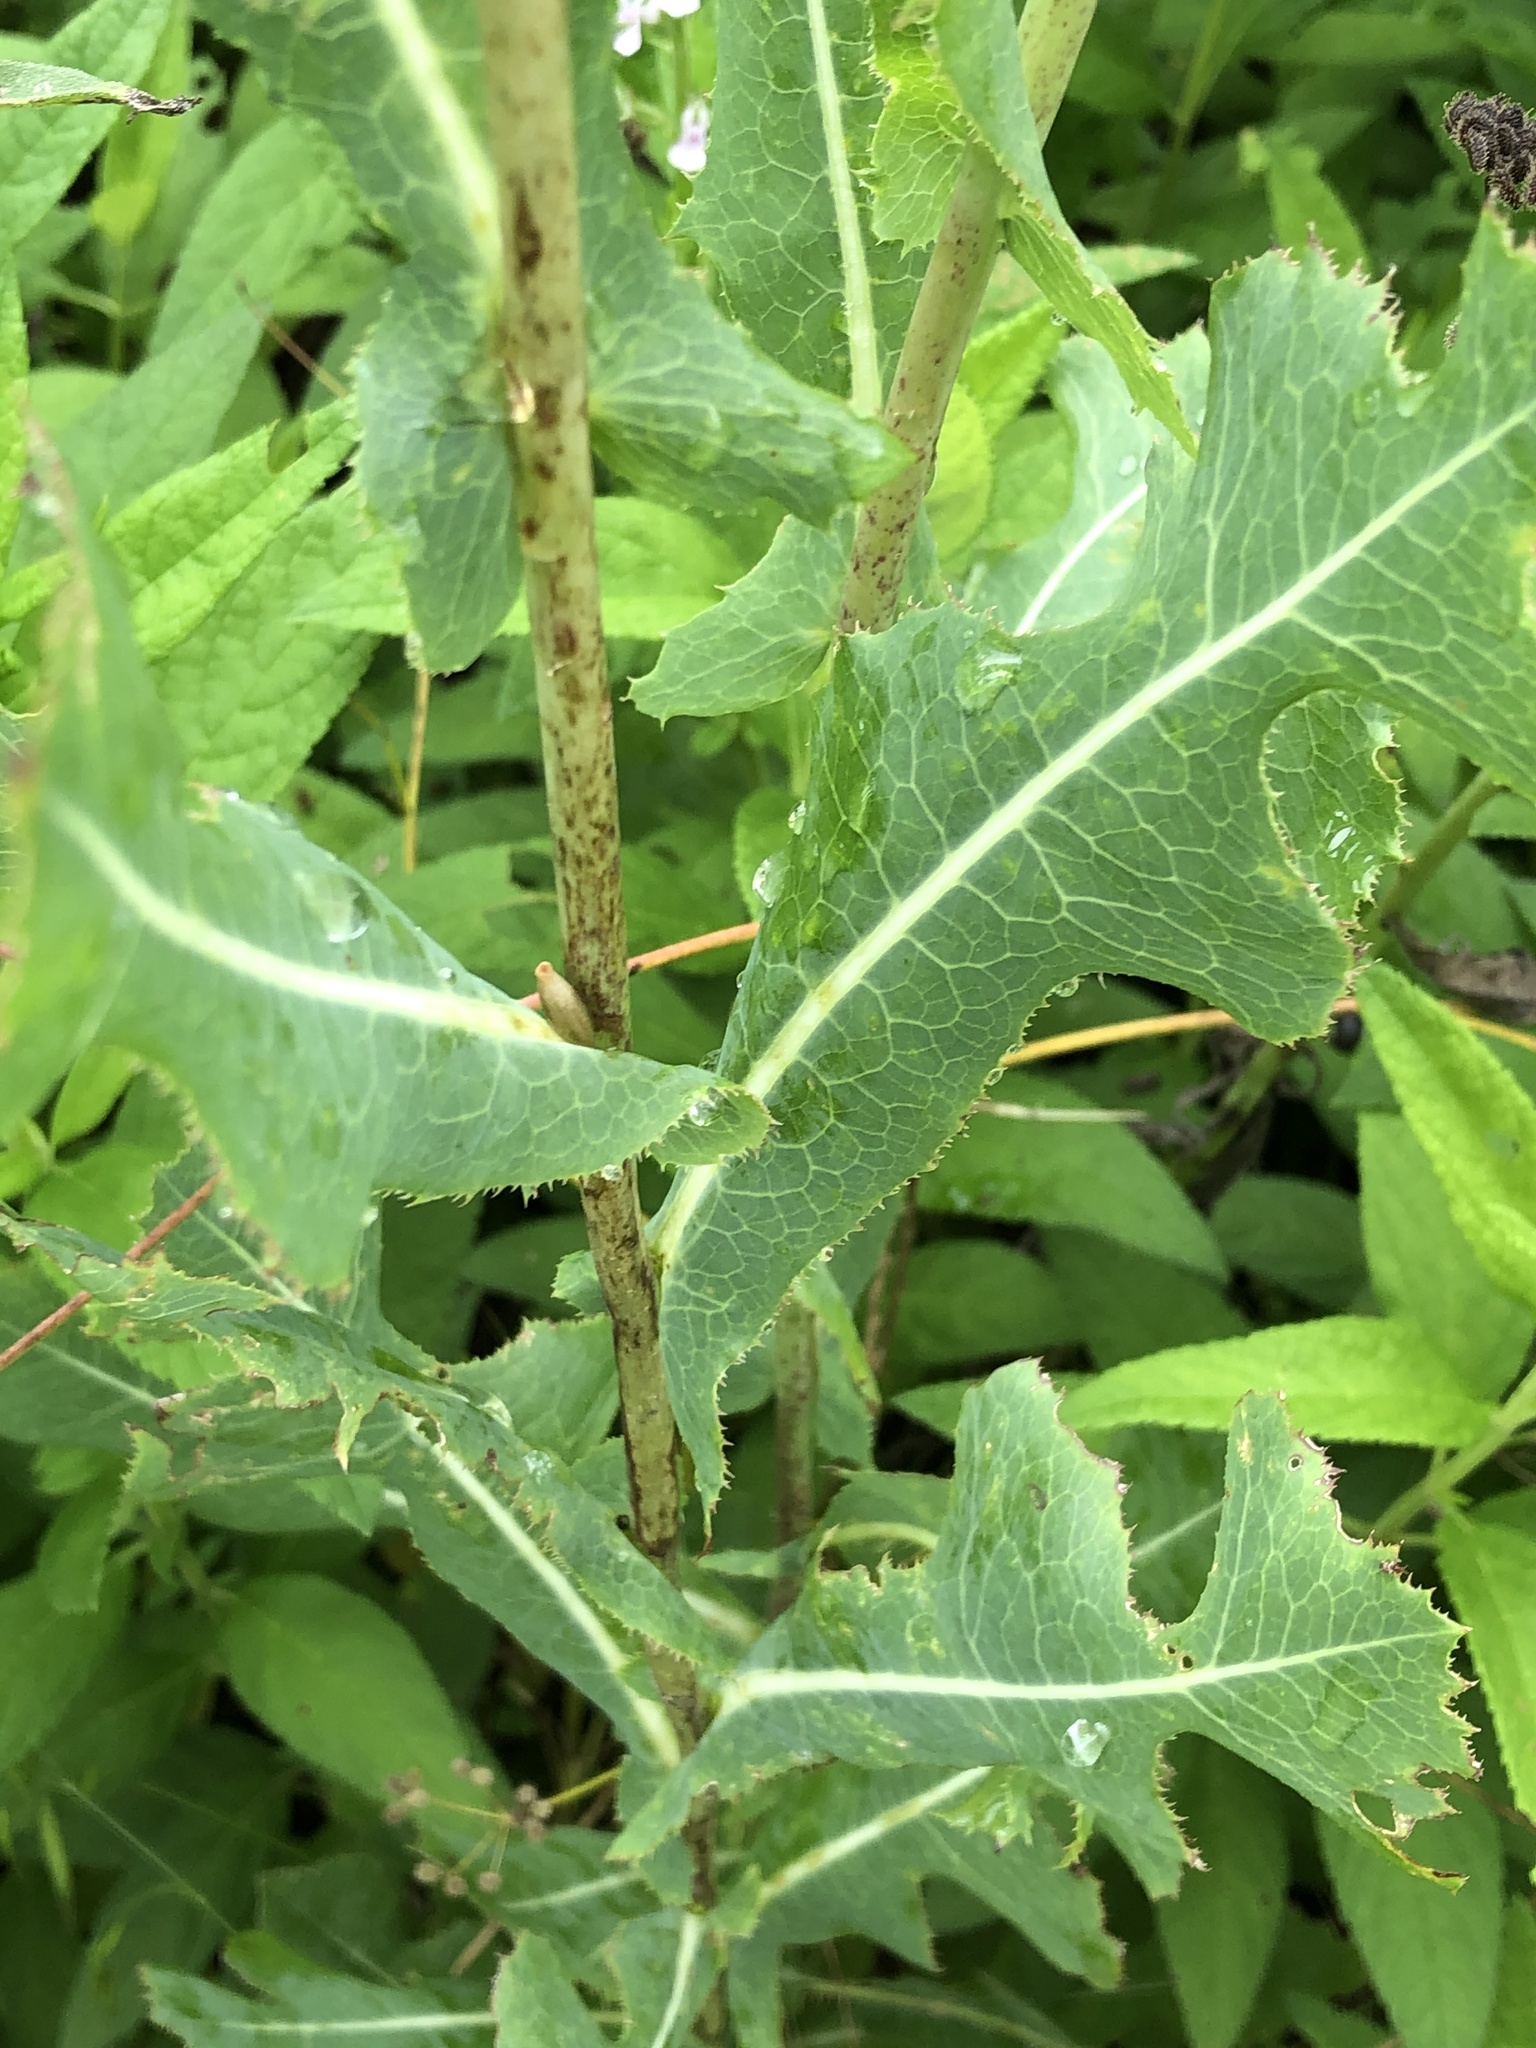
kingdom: Plantae
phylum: Tracheophyta
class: Magnoliopsida
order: Asterales
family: Asteraceae
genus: Lactuca
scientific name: Lactuca serriola
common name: Prickly lettuce
